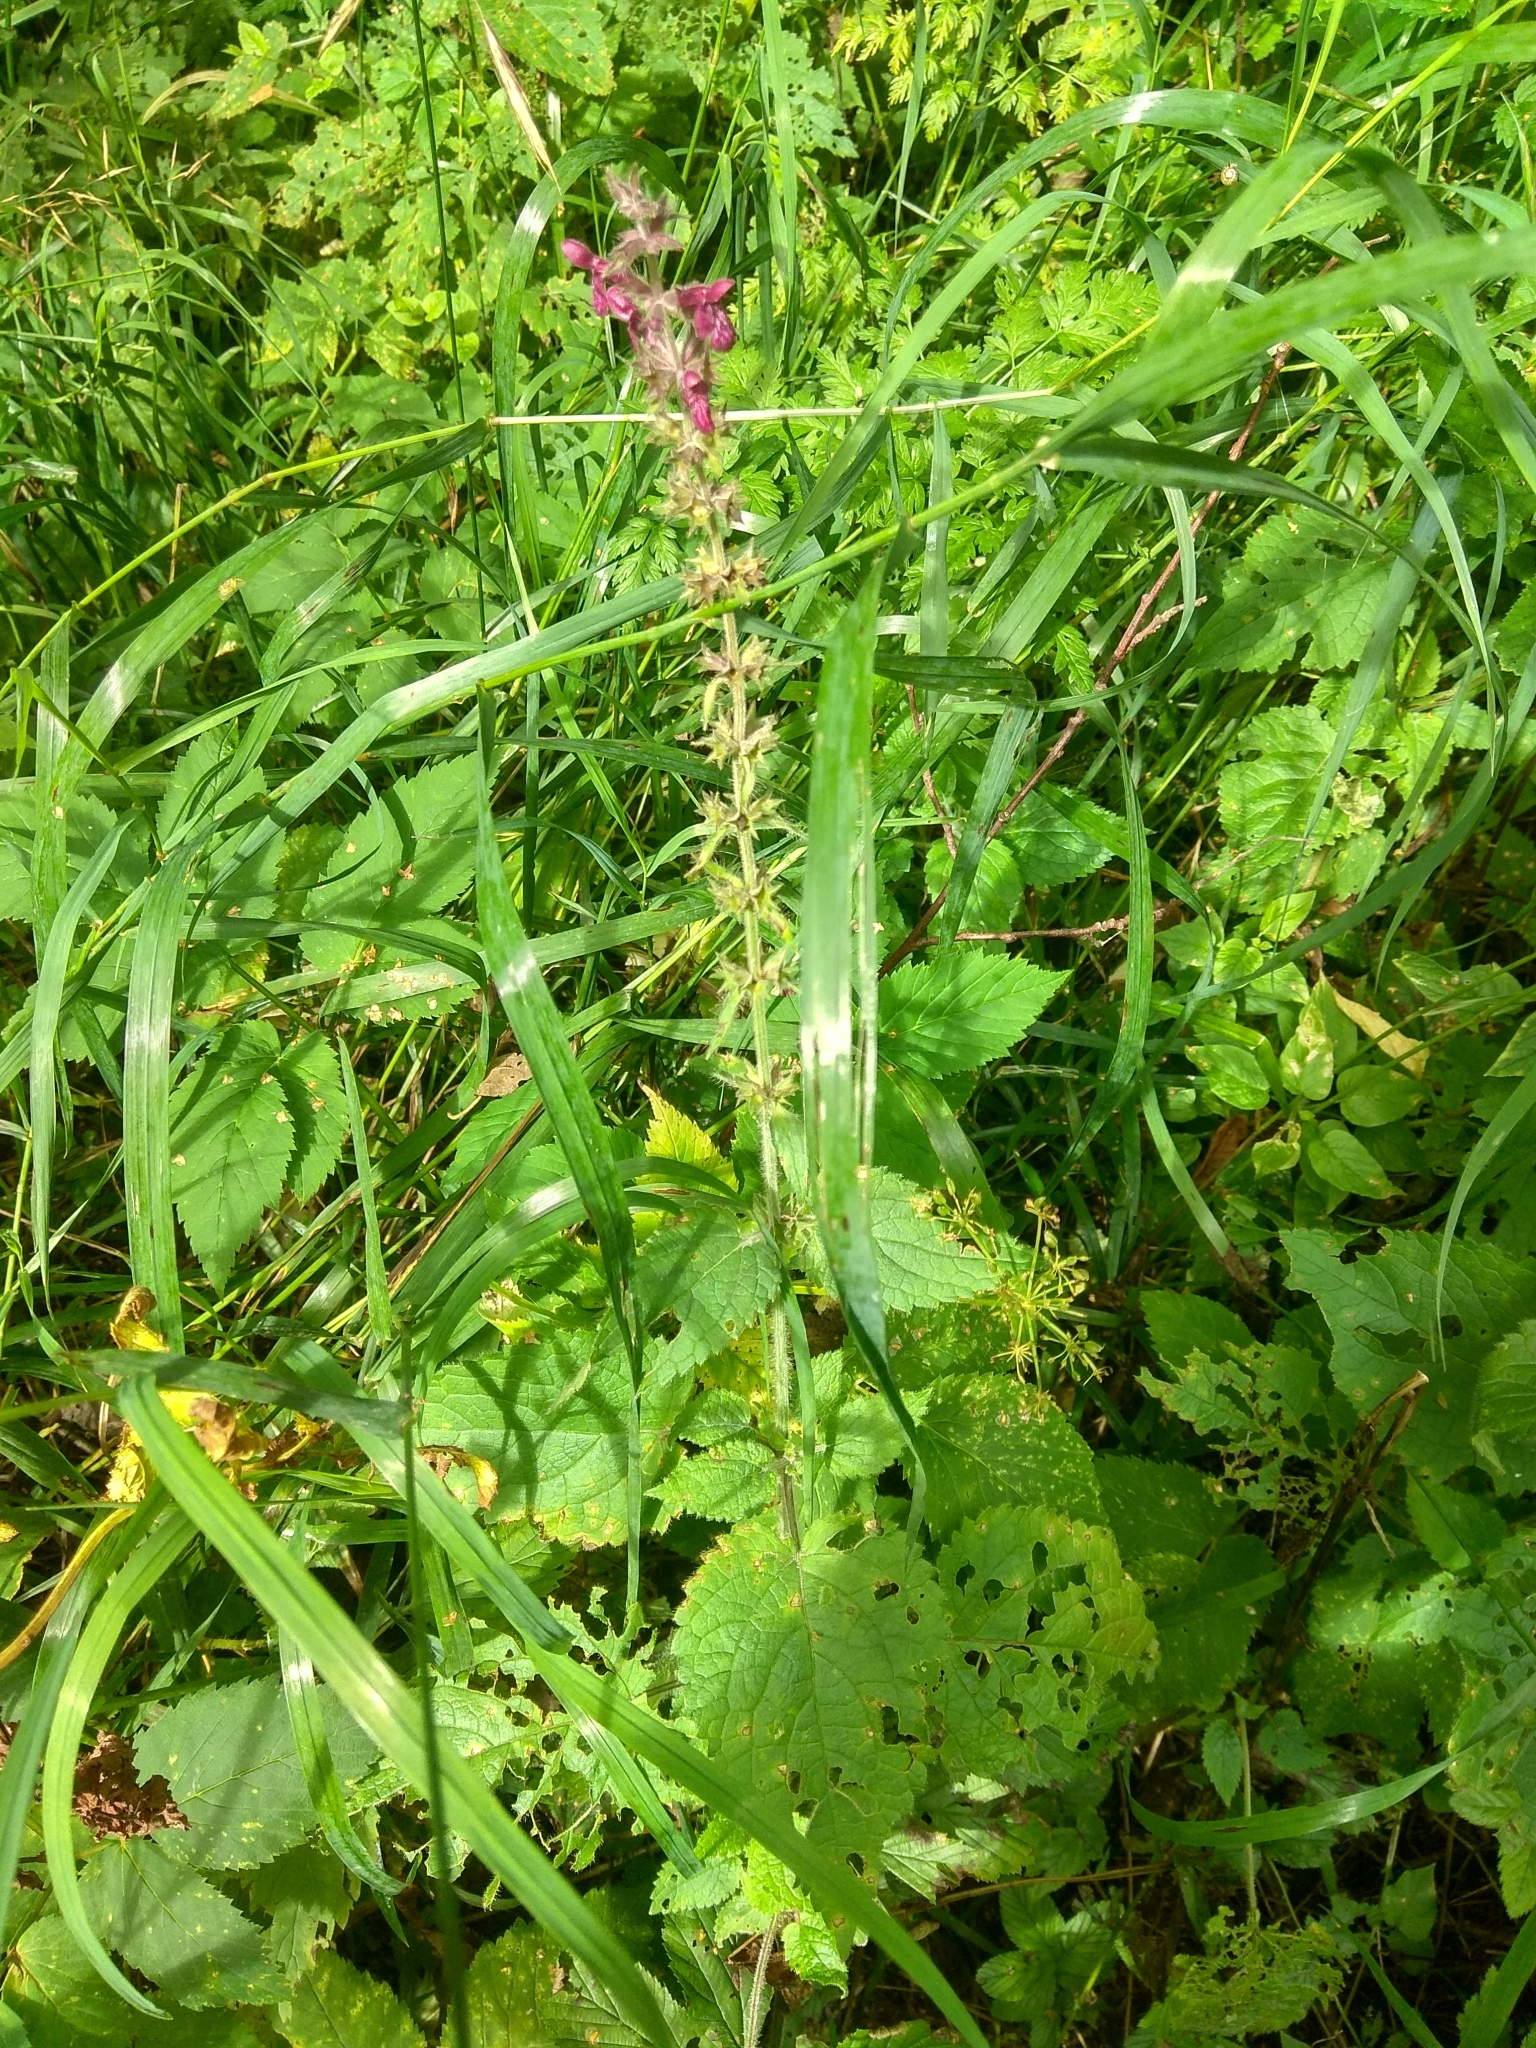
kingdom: Plantae
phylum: Tracheophyta
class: Magnoliopsida
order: Lamiales
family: Lamiaceae
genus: Stachys
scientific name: Stachys sylvatica
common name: Hedge woundwort
